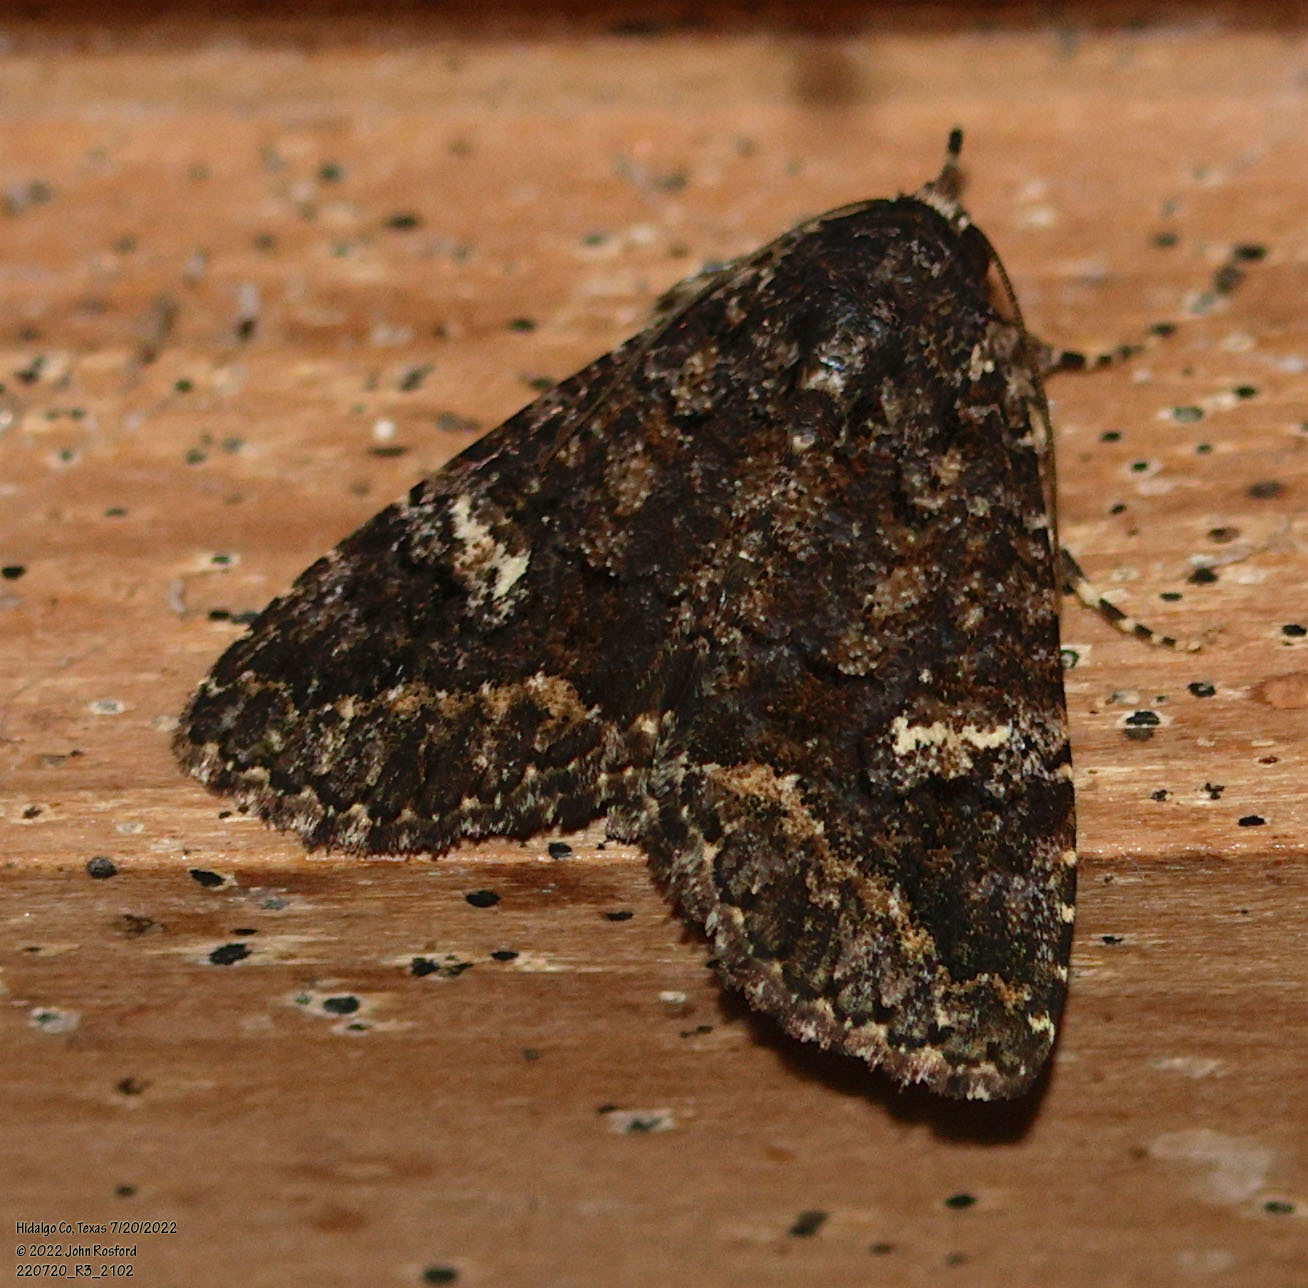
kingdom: Animalia
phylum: Arthropoda
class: Insecta
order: Lepidoptera
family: Erebidae
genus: Coxina
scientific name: Coxina cinctipalpis
